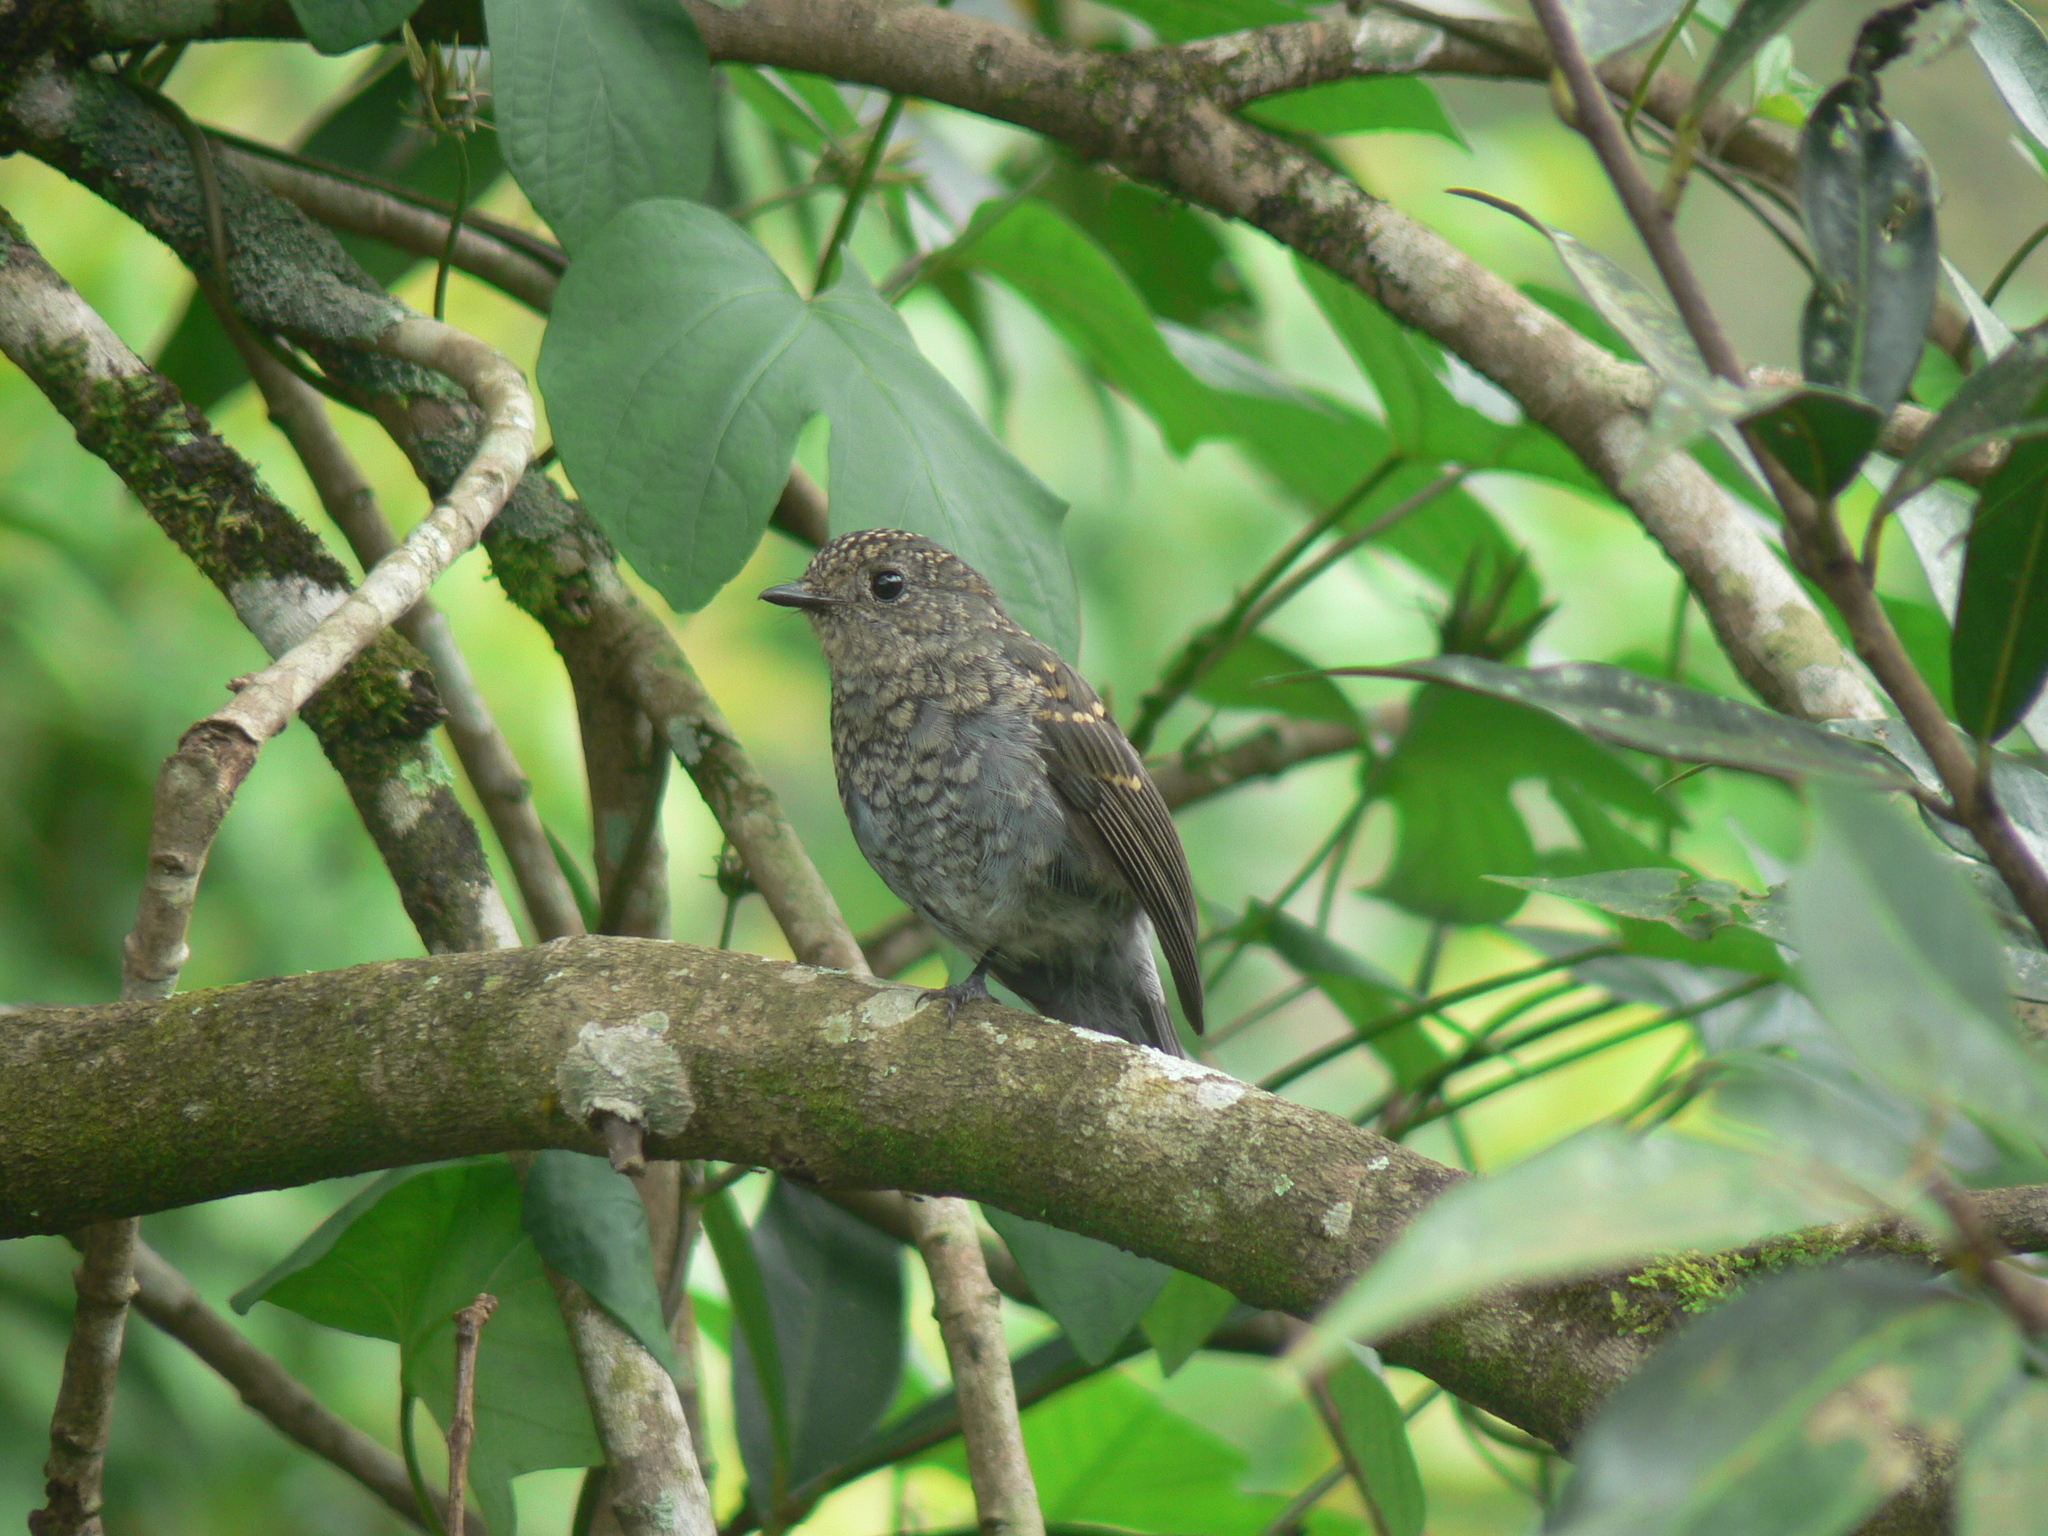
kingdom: Animalia
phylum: Chordata
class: Aves
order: Passeriformes
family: Muscicapidae
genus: Eumyias
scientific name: Eumyias albicaudatus
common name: Nilgiri flycatcher
